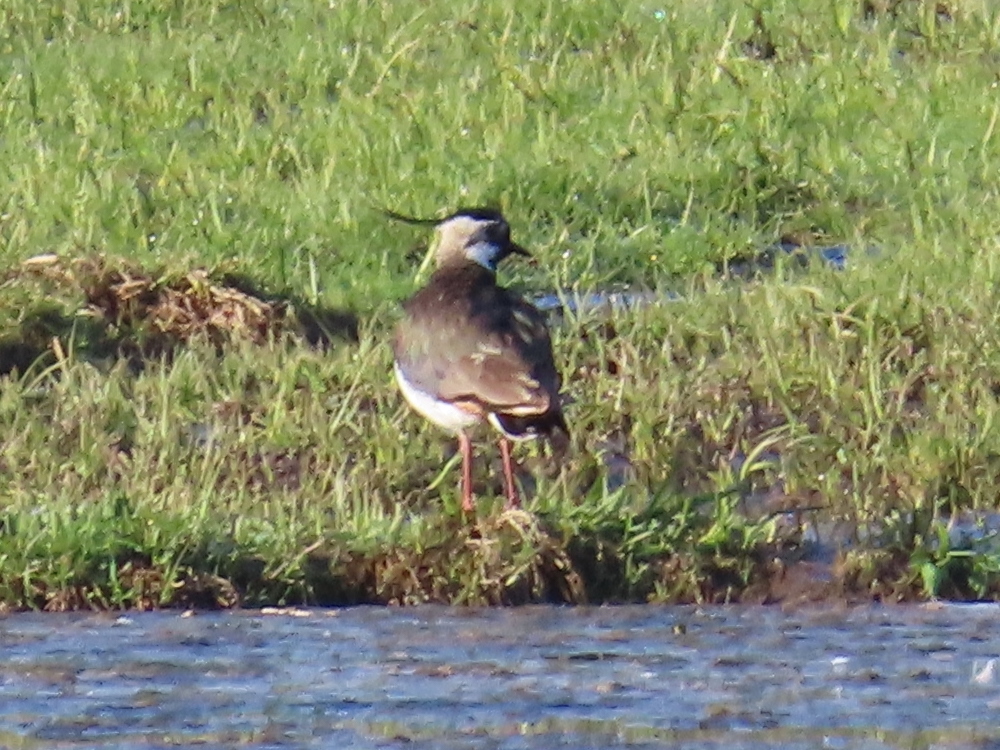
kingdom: Animalia
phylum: Chordata
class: Aves
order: Charadriiformes
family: Charadriidae
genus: Vanellus
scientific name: Vanellus vanellus
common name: Northern lapwing
